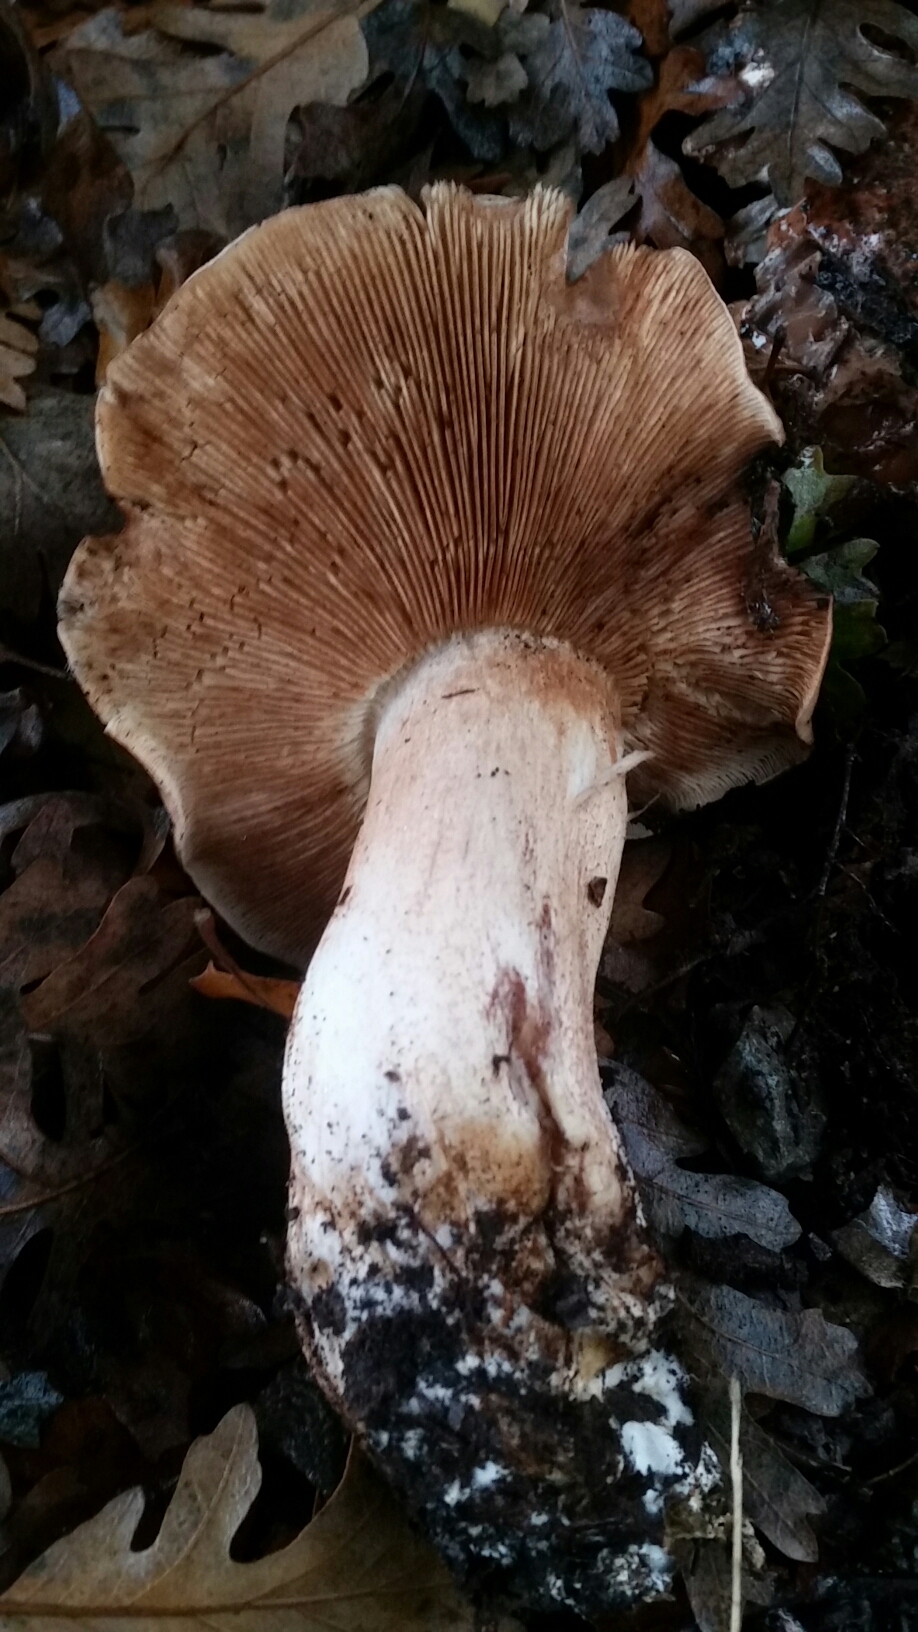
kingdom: Fungi
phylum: Basidiomycota
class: Agaricomycetes
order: Agaricales
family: Tricholomataceae
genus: Melanoleuca
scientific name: Melanoleuca dryophila
